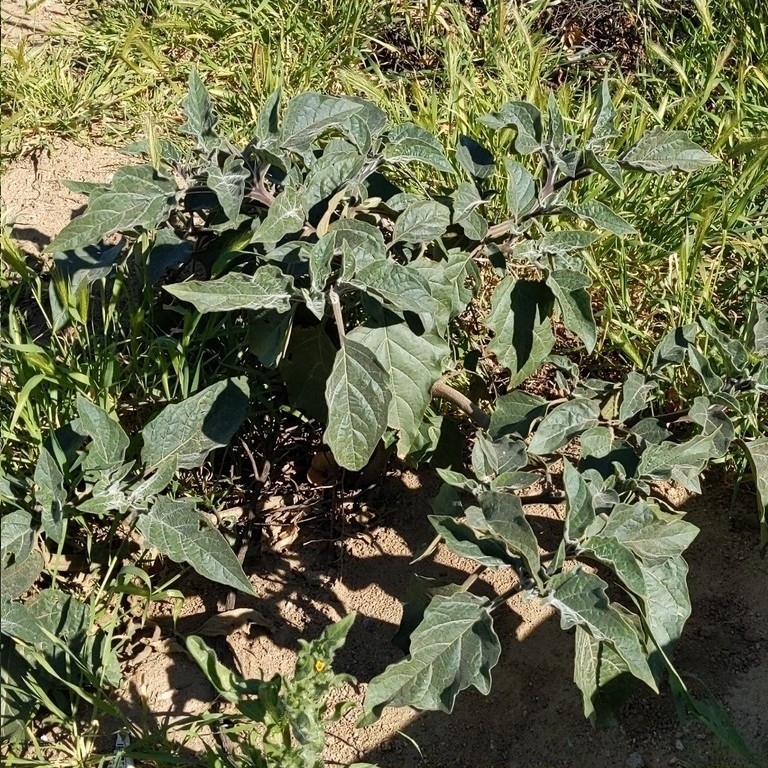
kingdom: Plantae
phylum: Tracheophyta
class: Magnoliopsida
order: Solanales
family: Solanaceae
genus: Datura
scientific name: Datura wrightii
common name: Sacred thorn-apple
